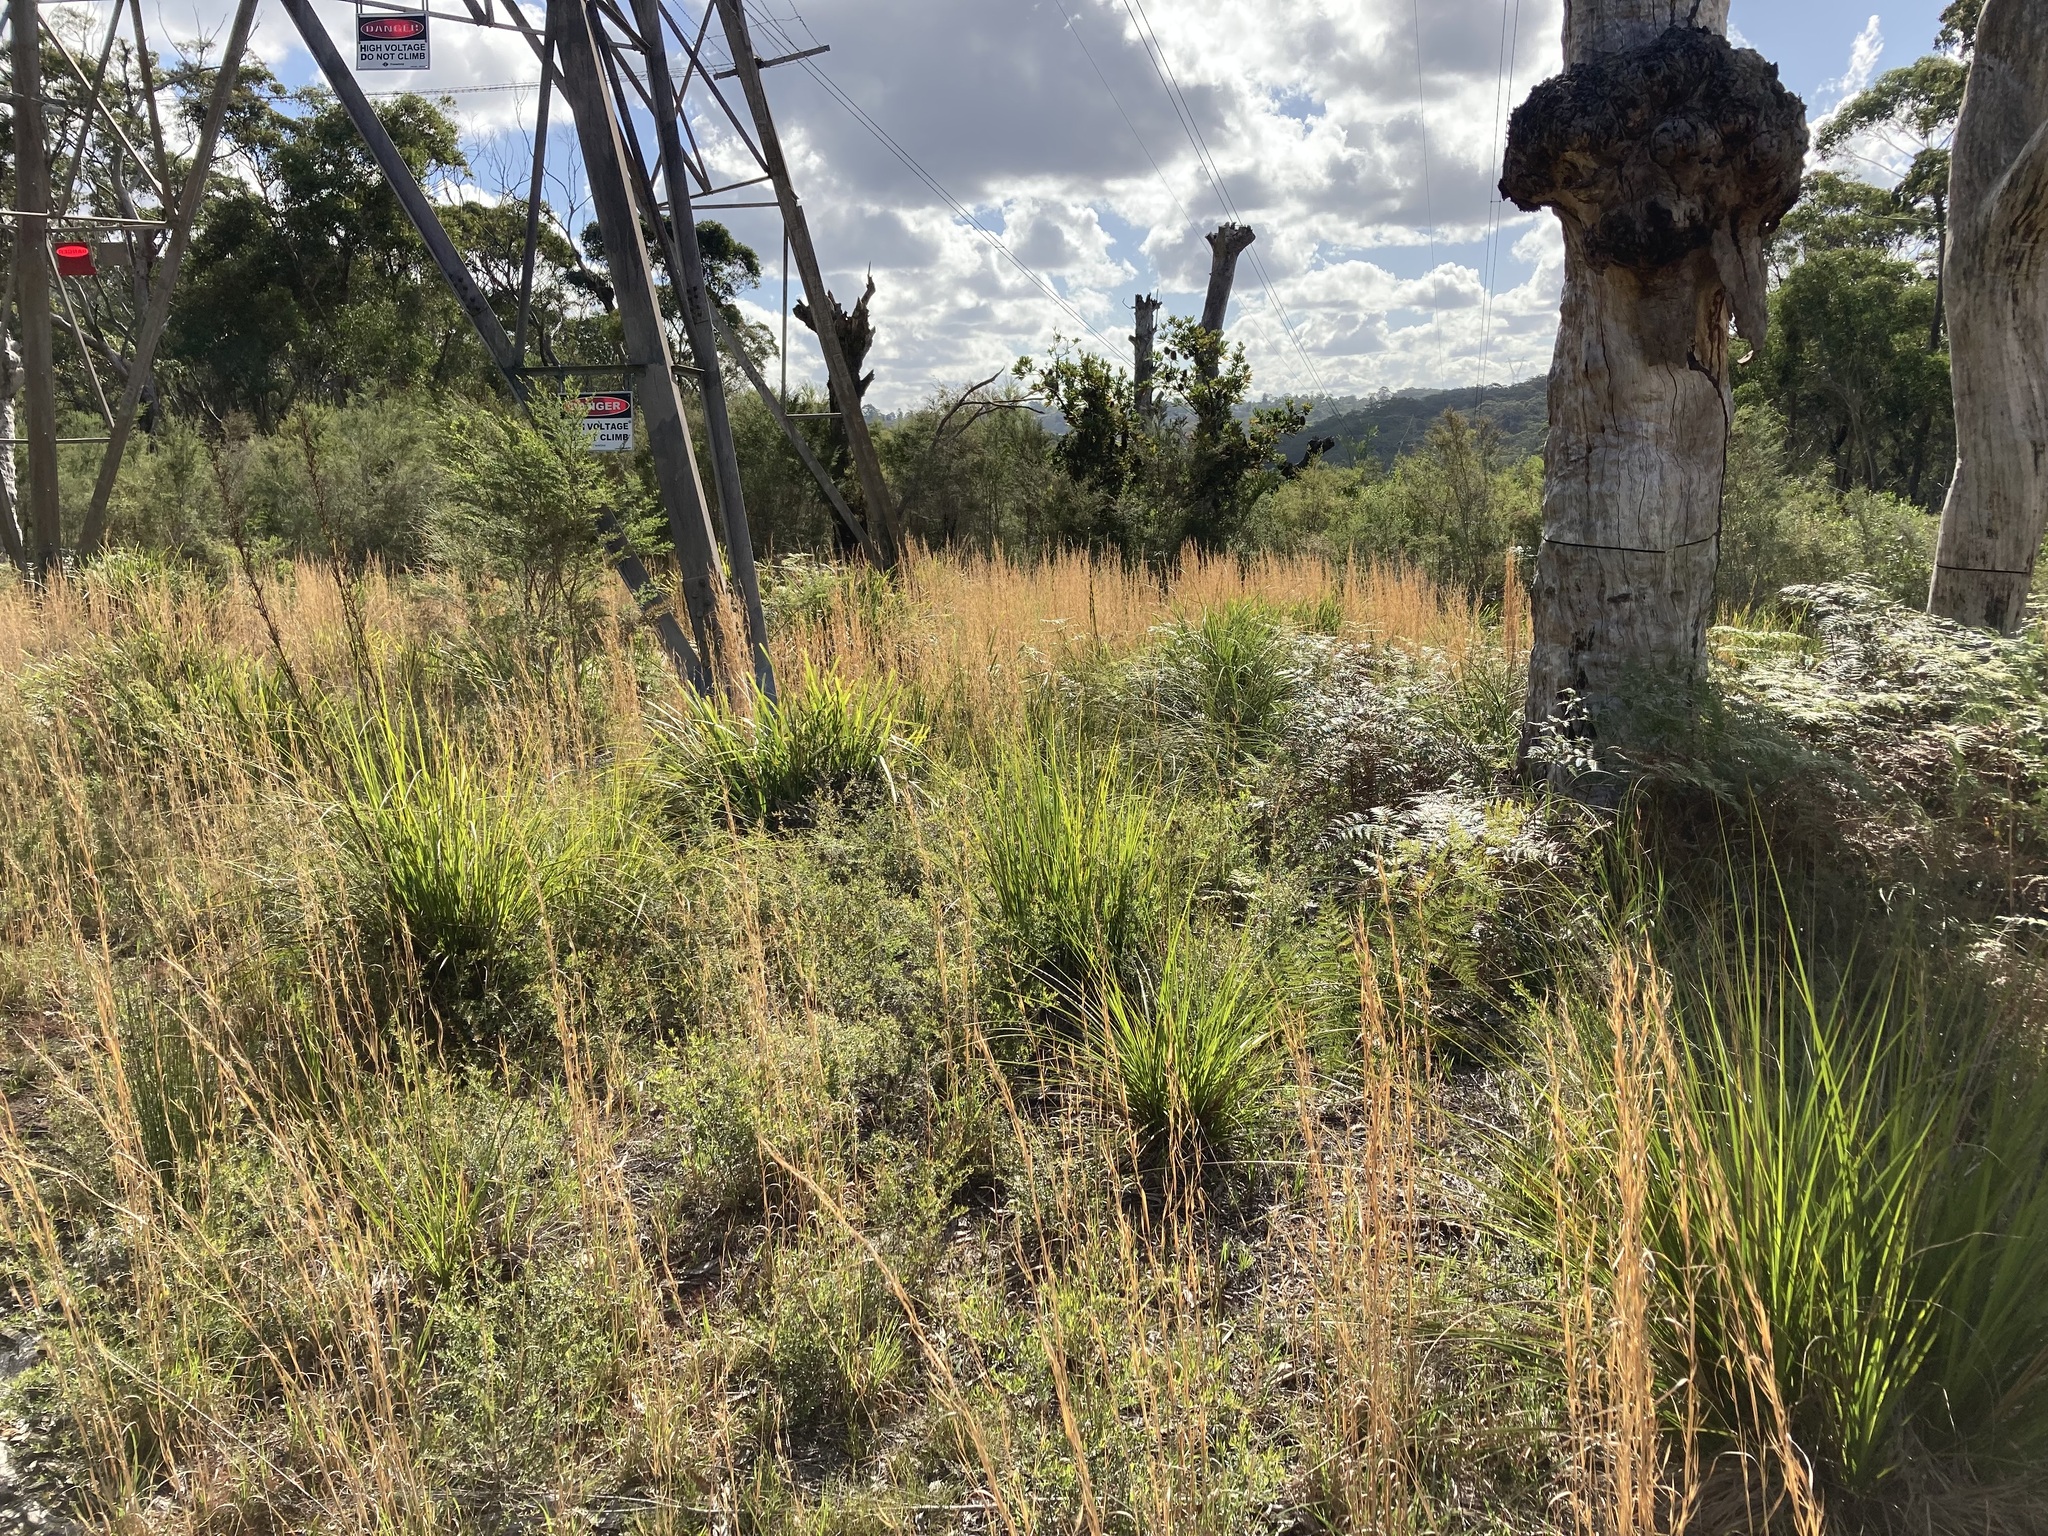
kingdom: Plantae
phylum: Tracheophyta
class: Liliopsida
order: Poales
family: Poaceae
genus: Andropogon
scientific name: Andropogon virginicus
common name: Broomsedge bluestem
